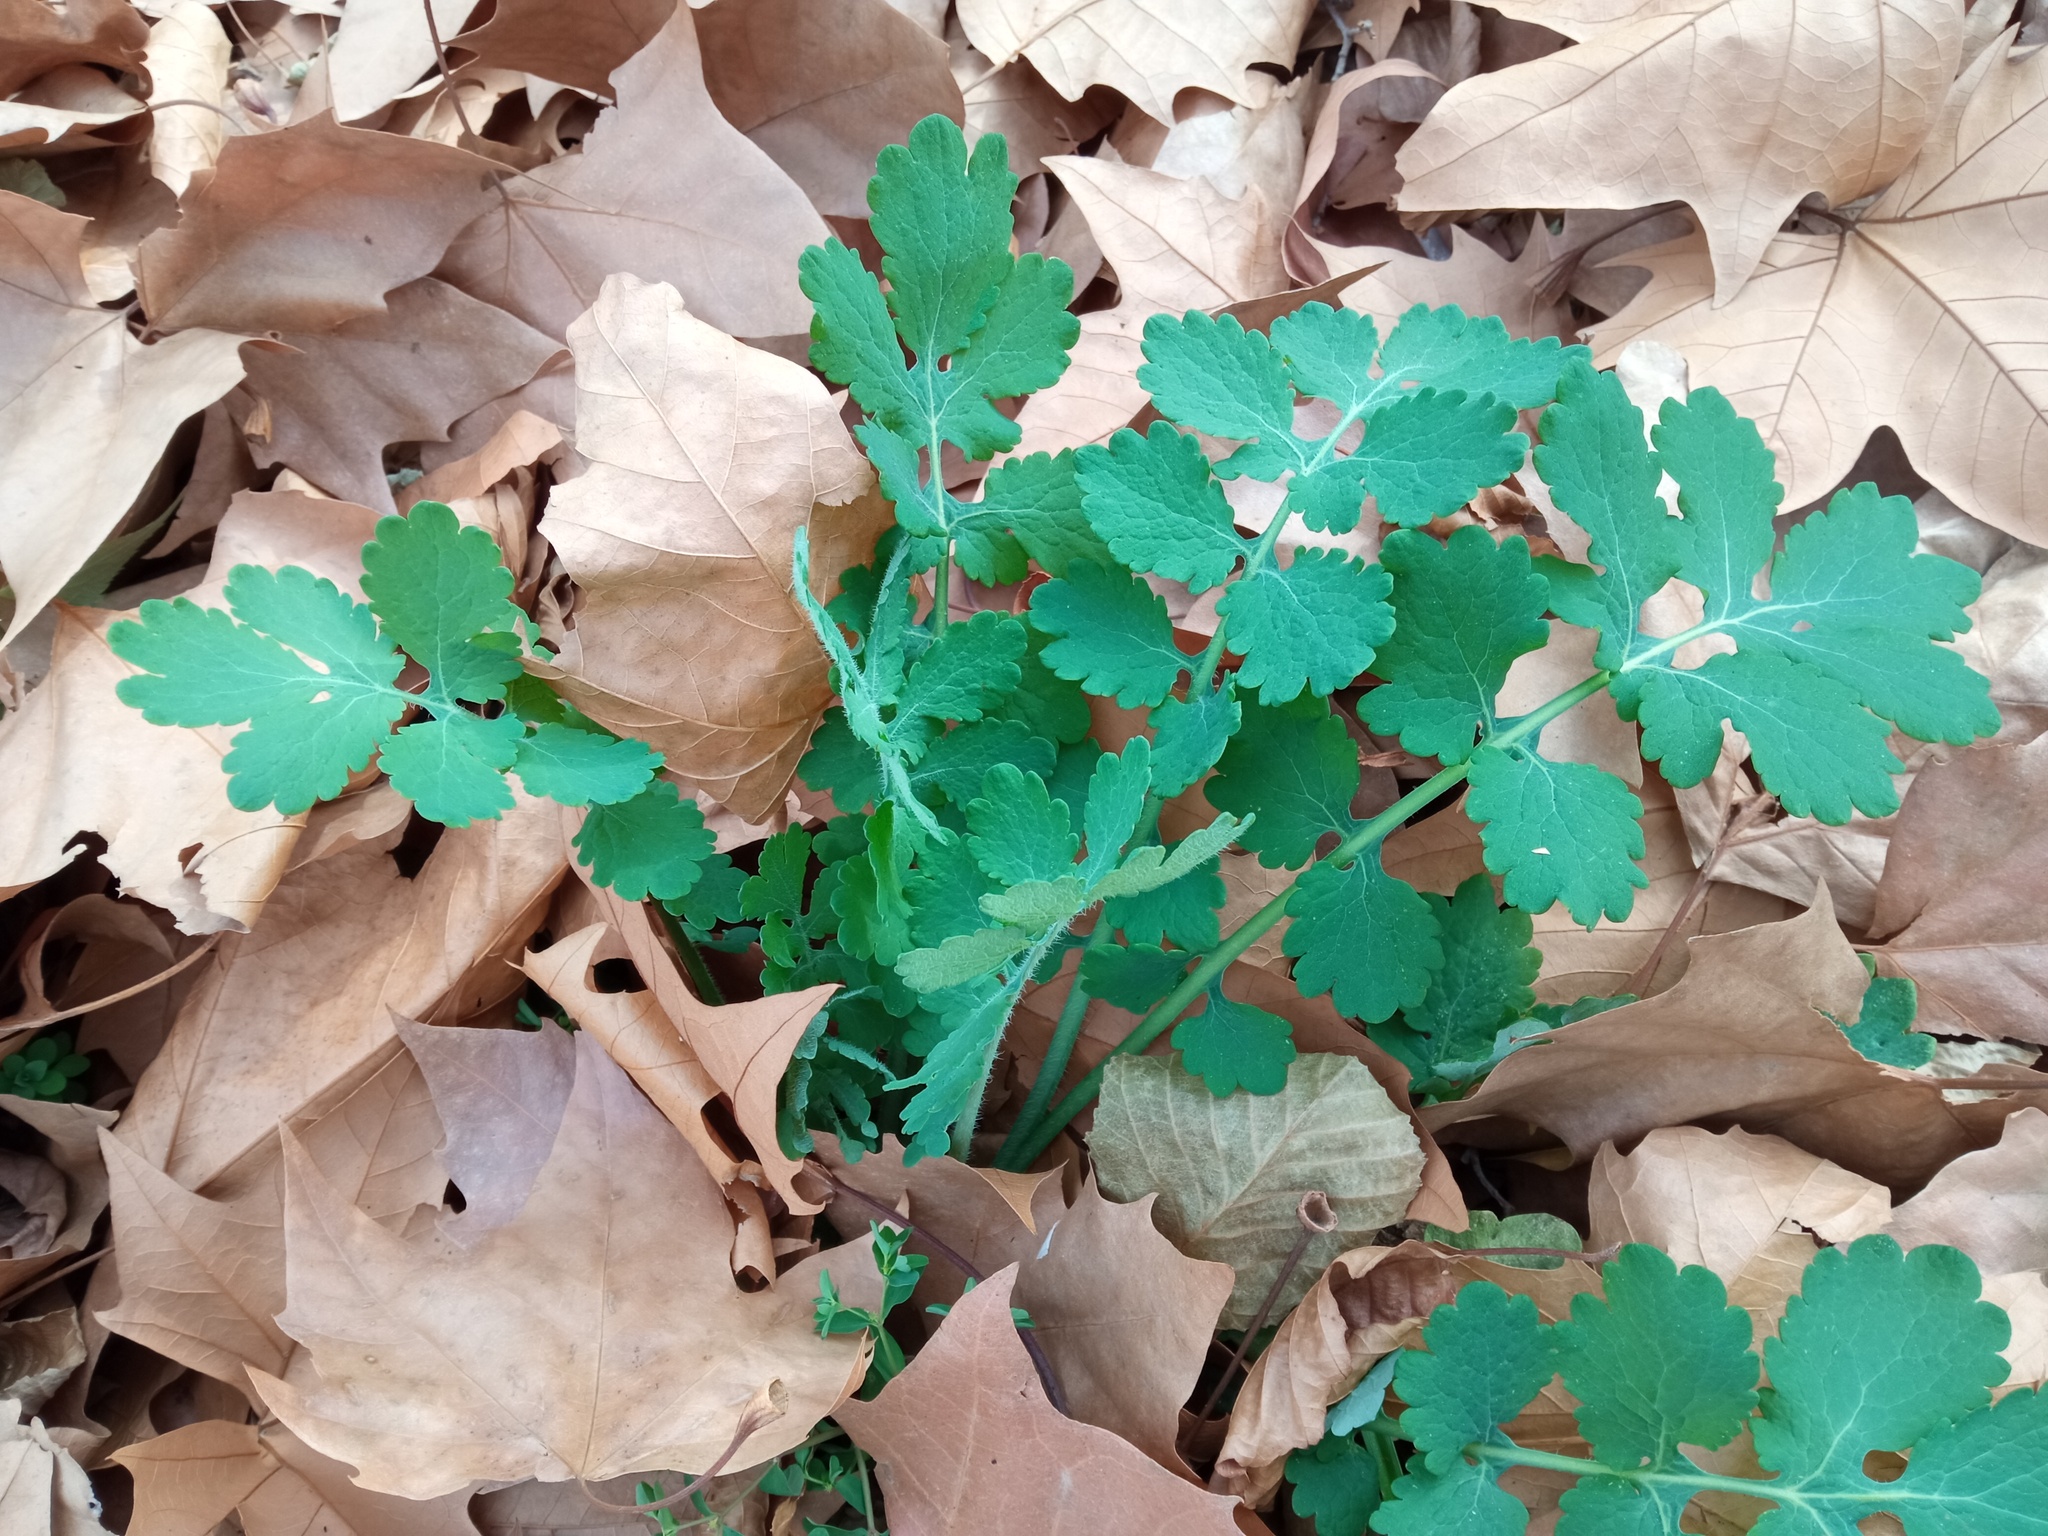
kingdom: Plantae
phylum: Tracheophyta
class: Magnoliopsida
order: Ranunculales
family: Papaveraceae
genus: Chelidonium
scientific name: Chelidonium majus
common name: Greater celandine
